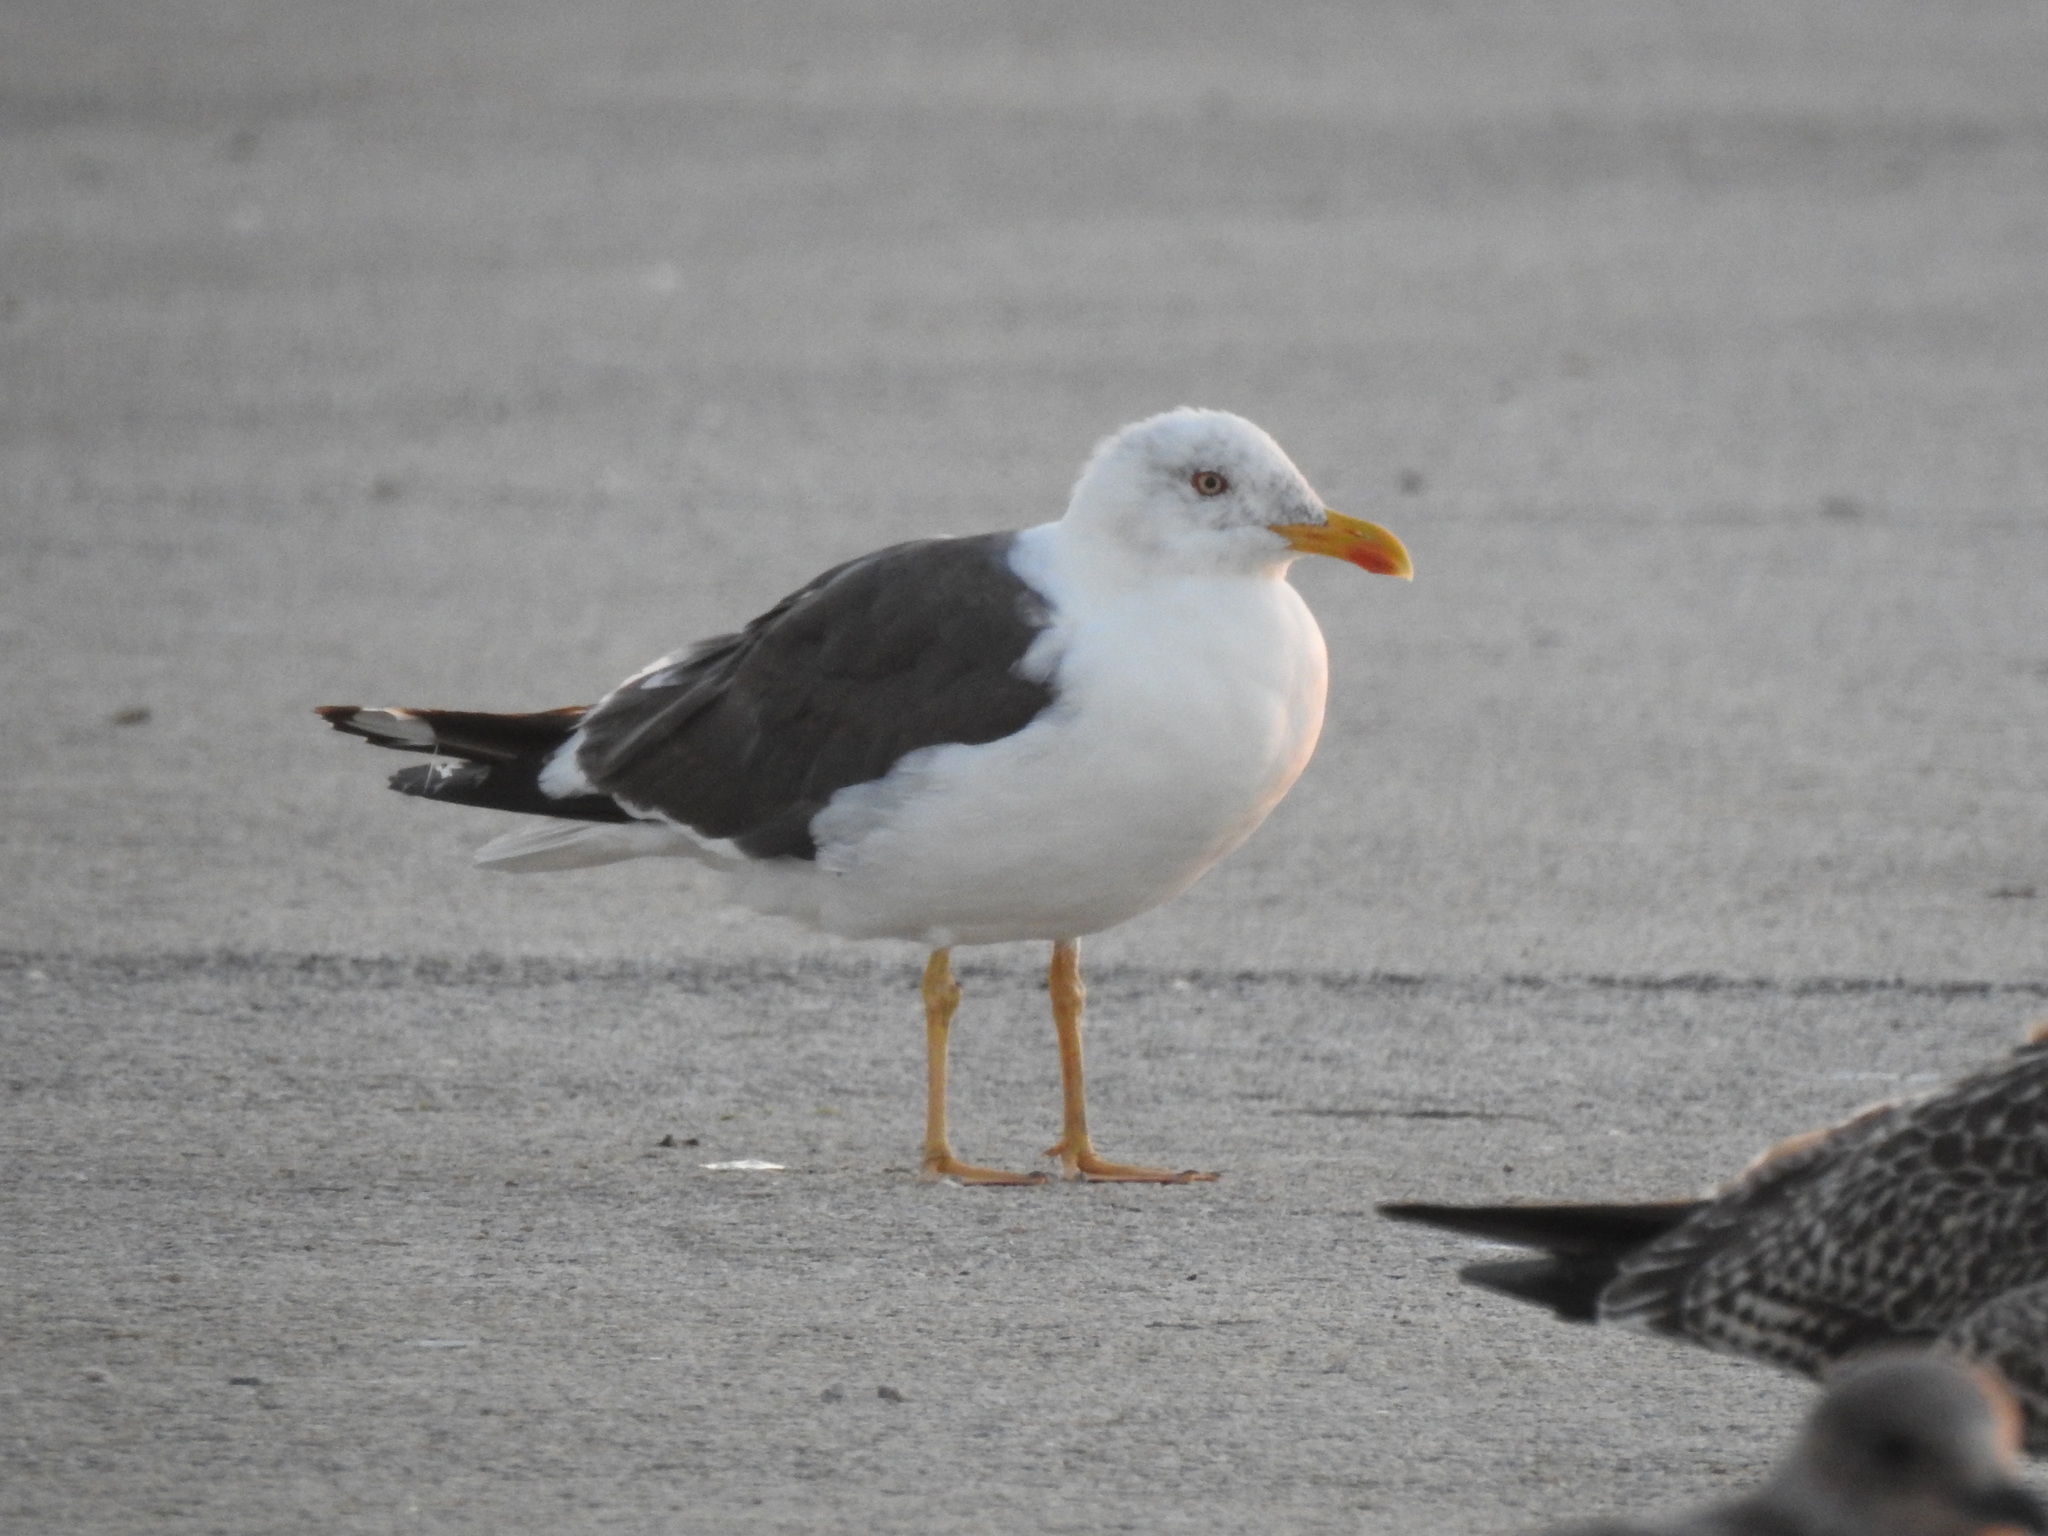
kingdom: Animalia
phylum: Chordata
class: Aves
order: Charadriiformes
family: Laridae
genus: Larus
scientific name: Larus fuscus
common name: Lesser black-backed gull
